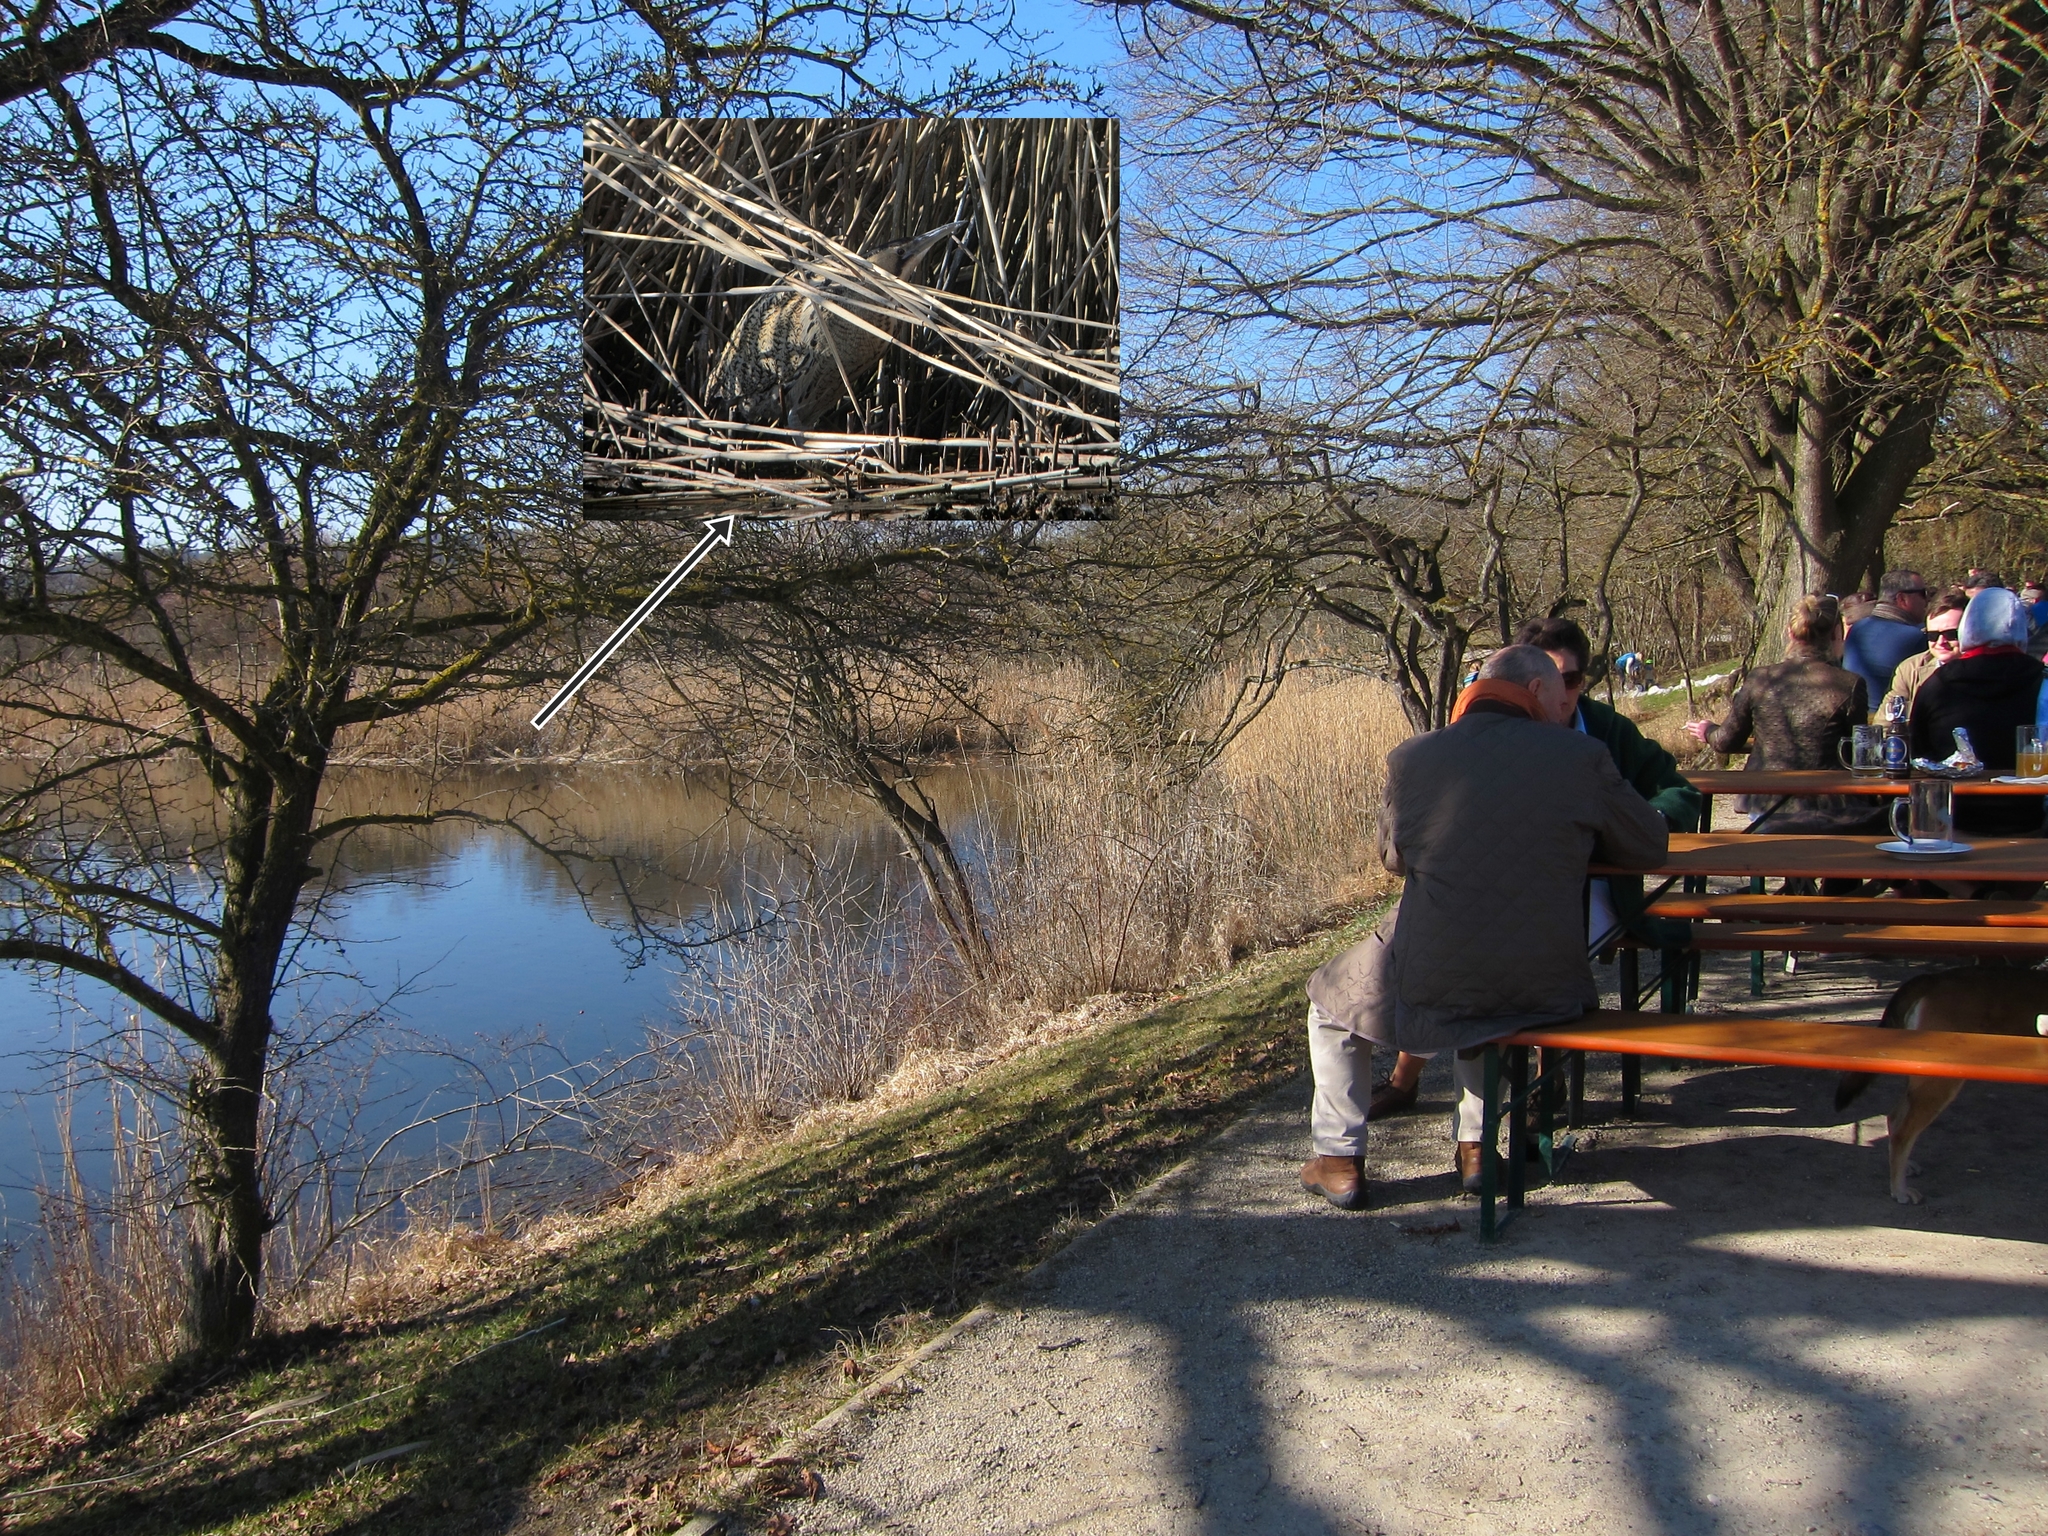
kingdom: Animalia
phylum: Chordata
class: Aves
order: Pelecaniformes
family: Ardeidae
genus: Botaurus
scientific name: Botaurus stellaris
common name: Eurasian bittern
